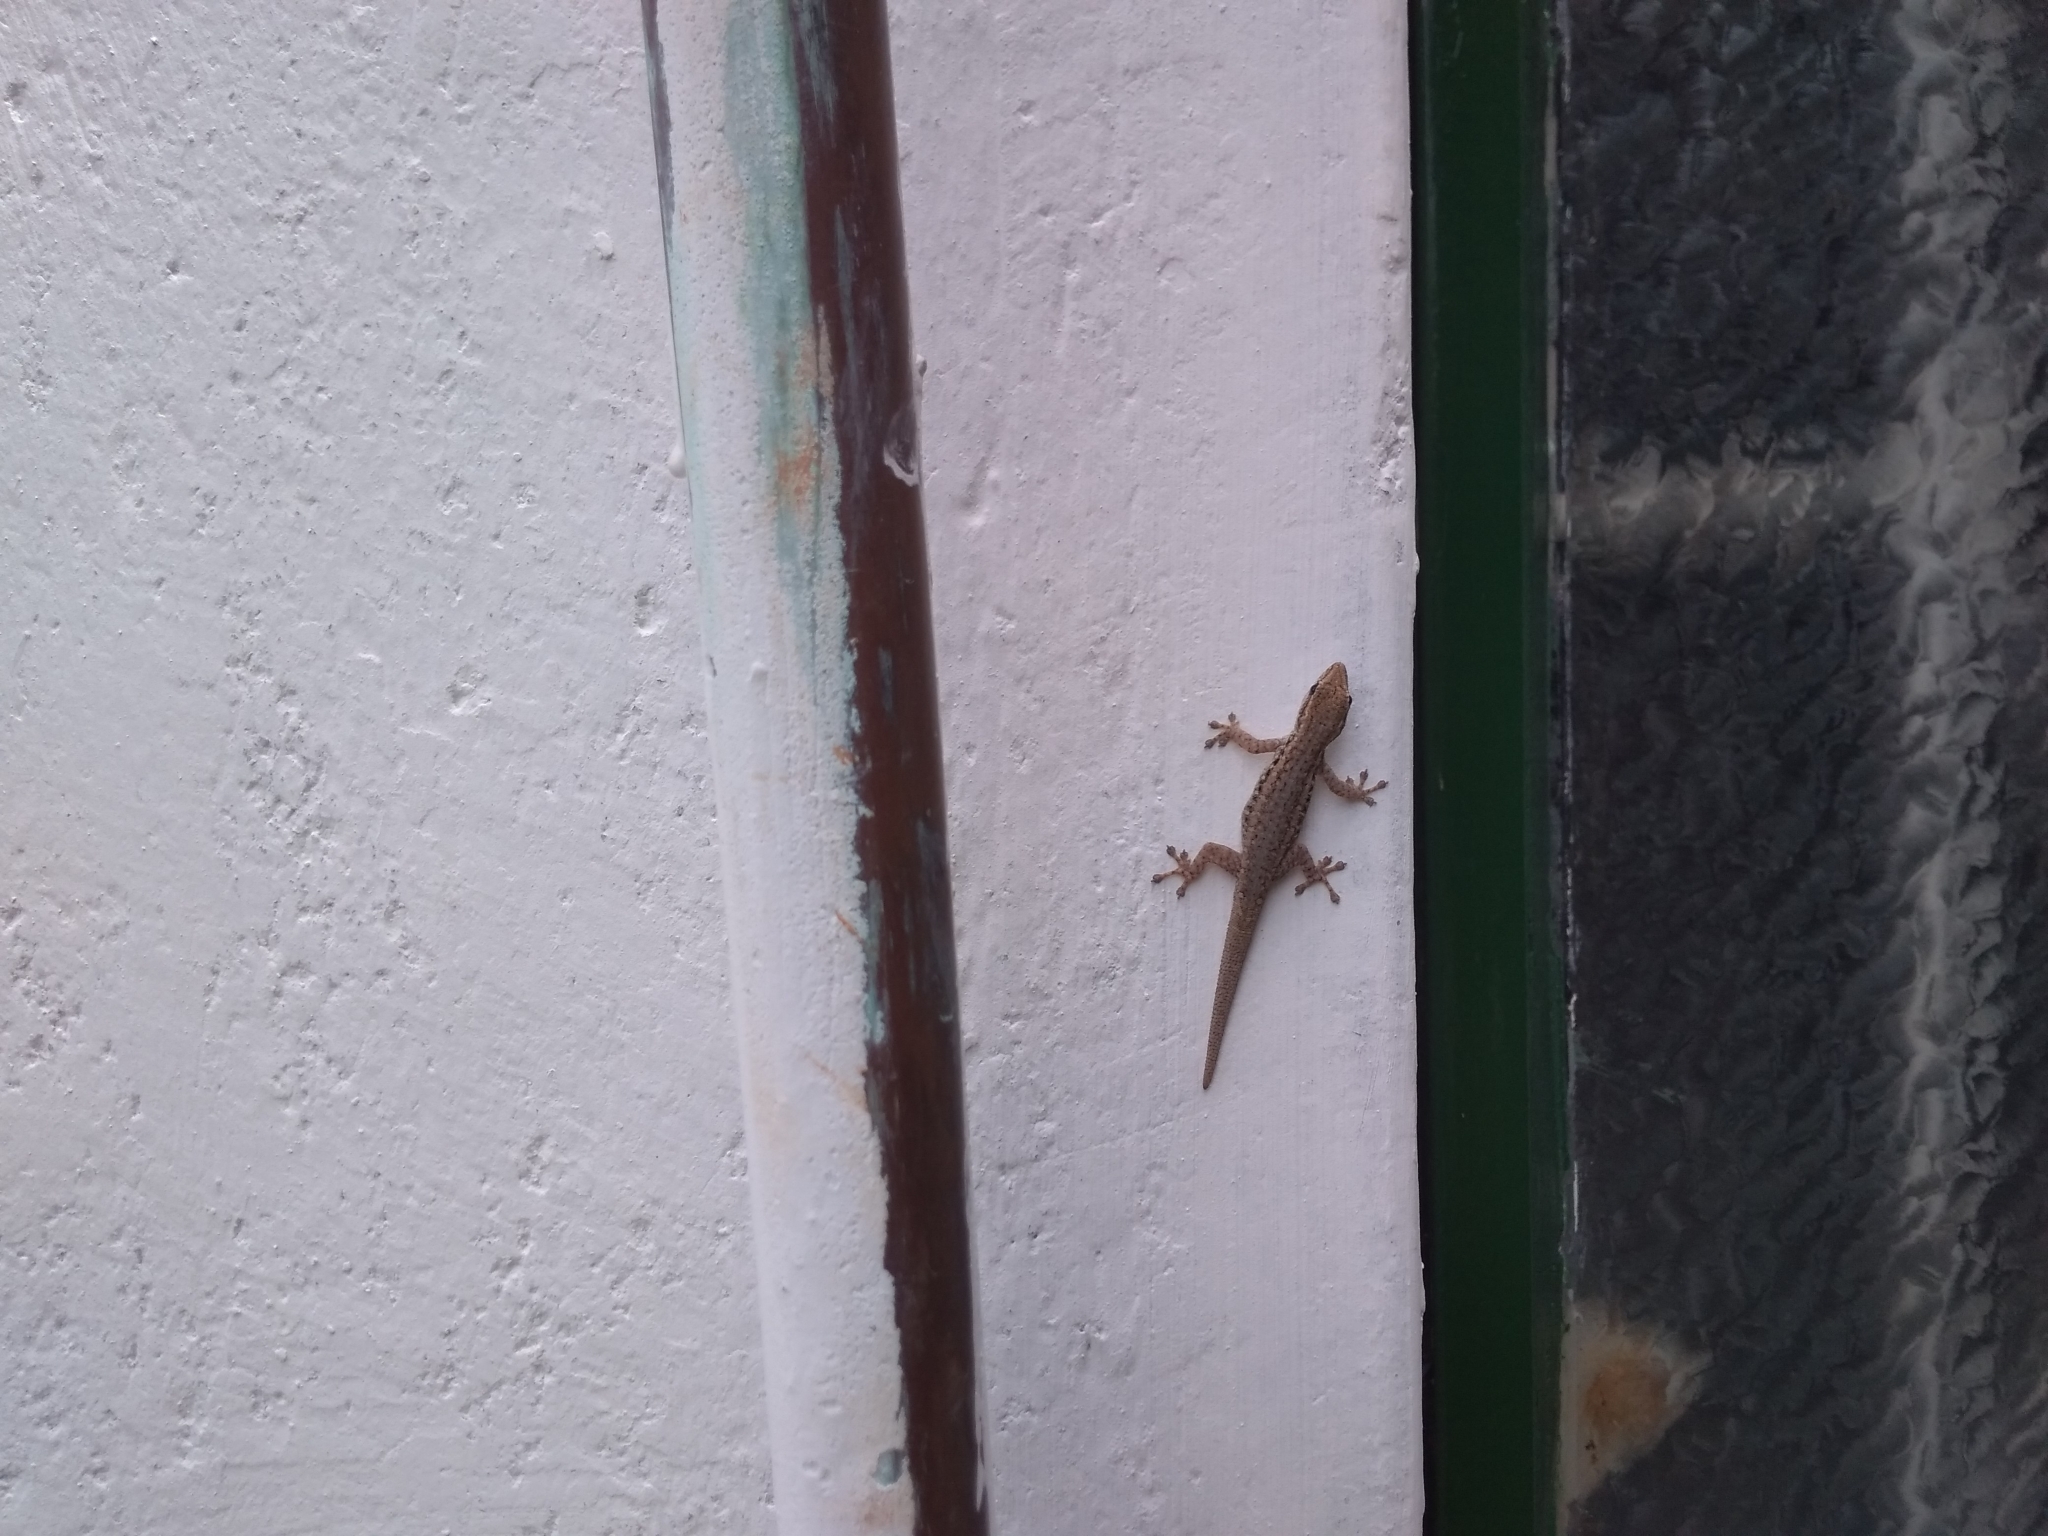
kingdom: Animalia
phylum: Chordata
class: Squamata
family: Gekkonidae
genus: Lygodactylus
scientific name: Lygodactylus capensis
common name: Cape dwarf gecko
